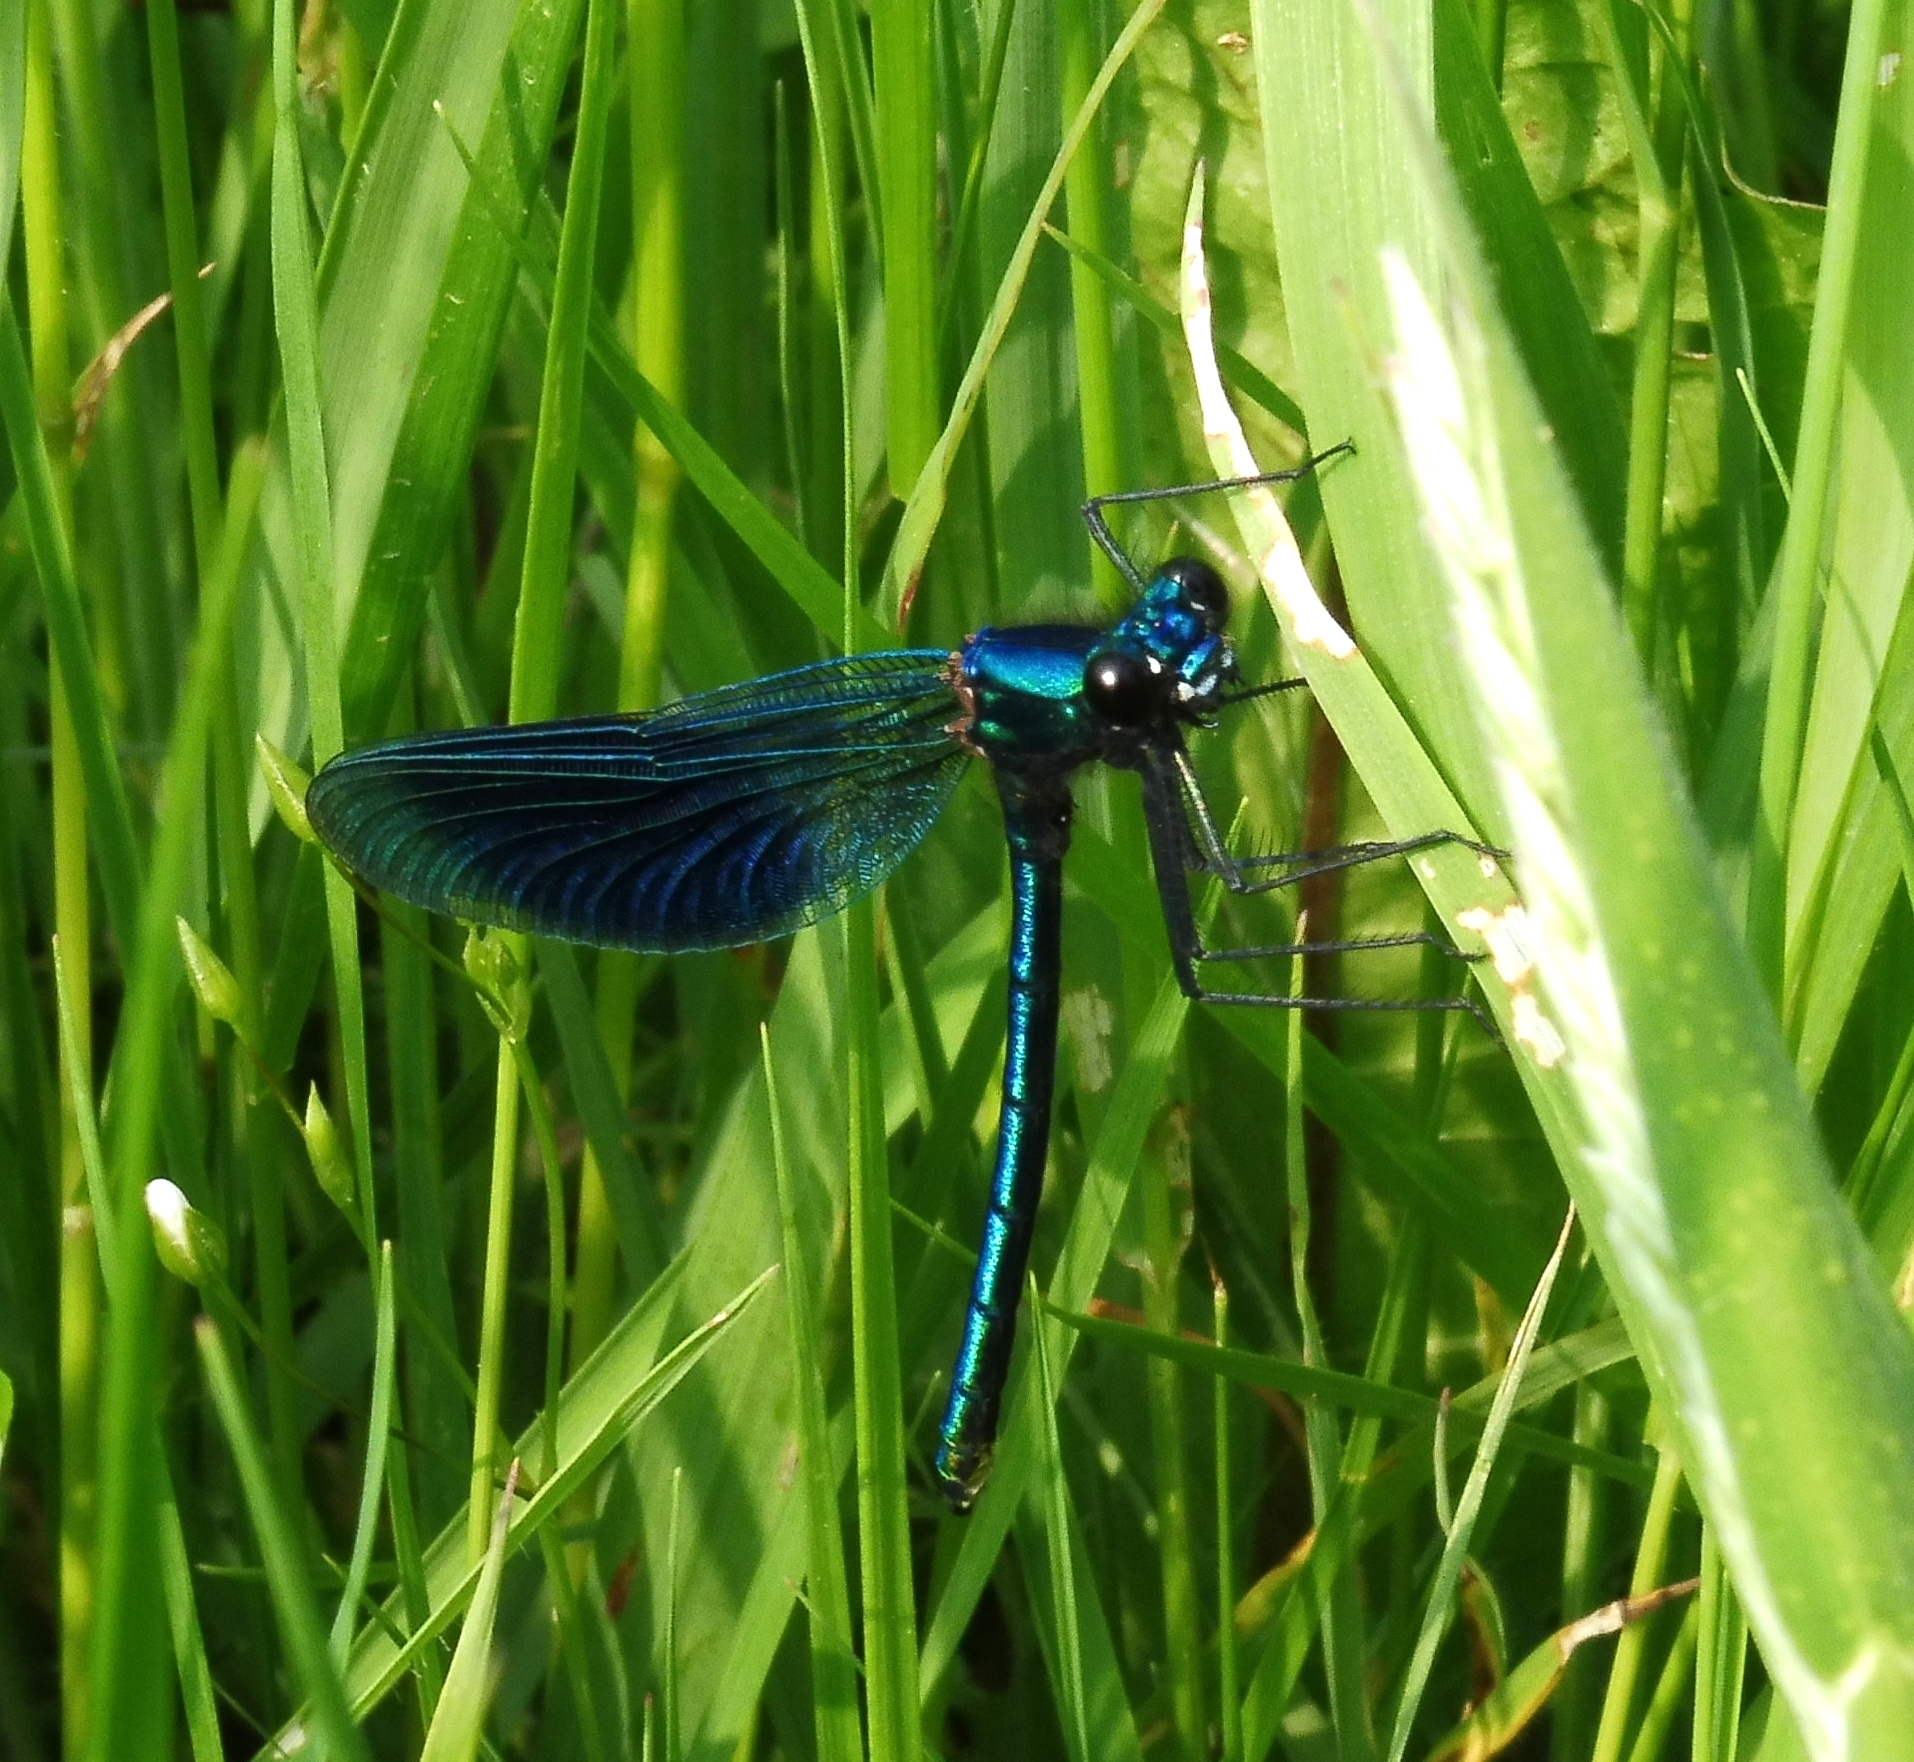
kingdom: Animalia
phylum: Arthropoda
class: Insecta
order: Odonata
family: Calopterygidae
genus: Calopteryx
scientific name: Calopteryx splendens
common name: Banded demoiselle
